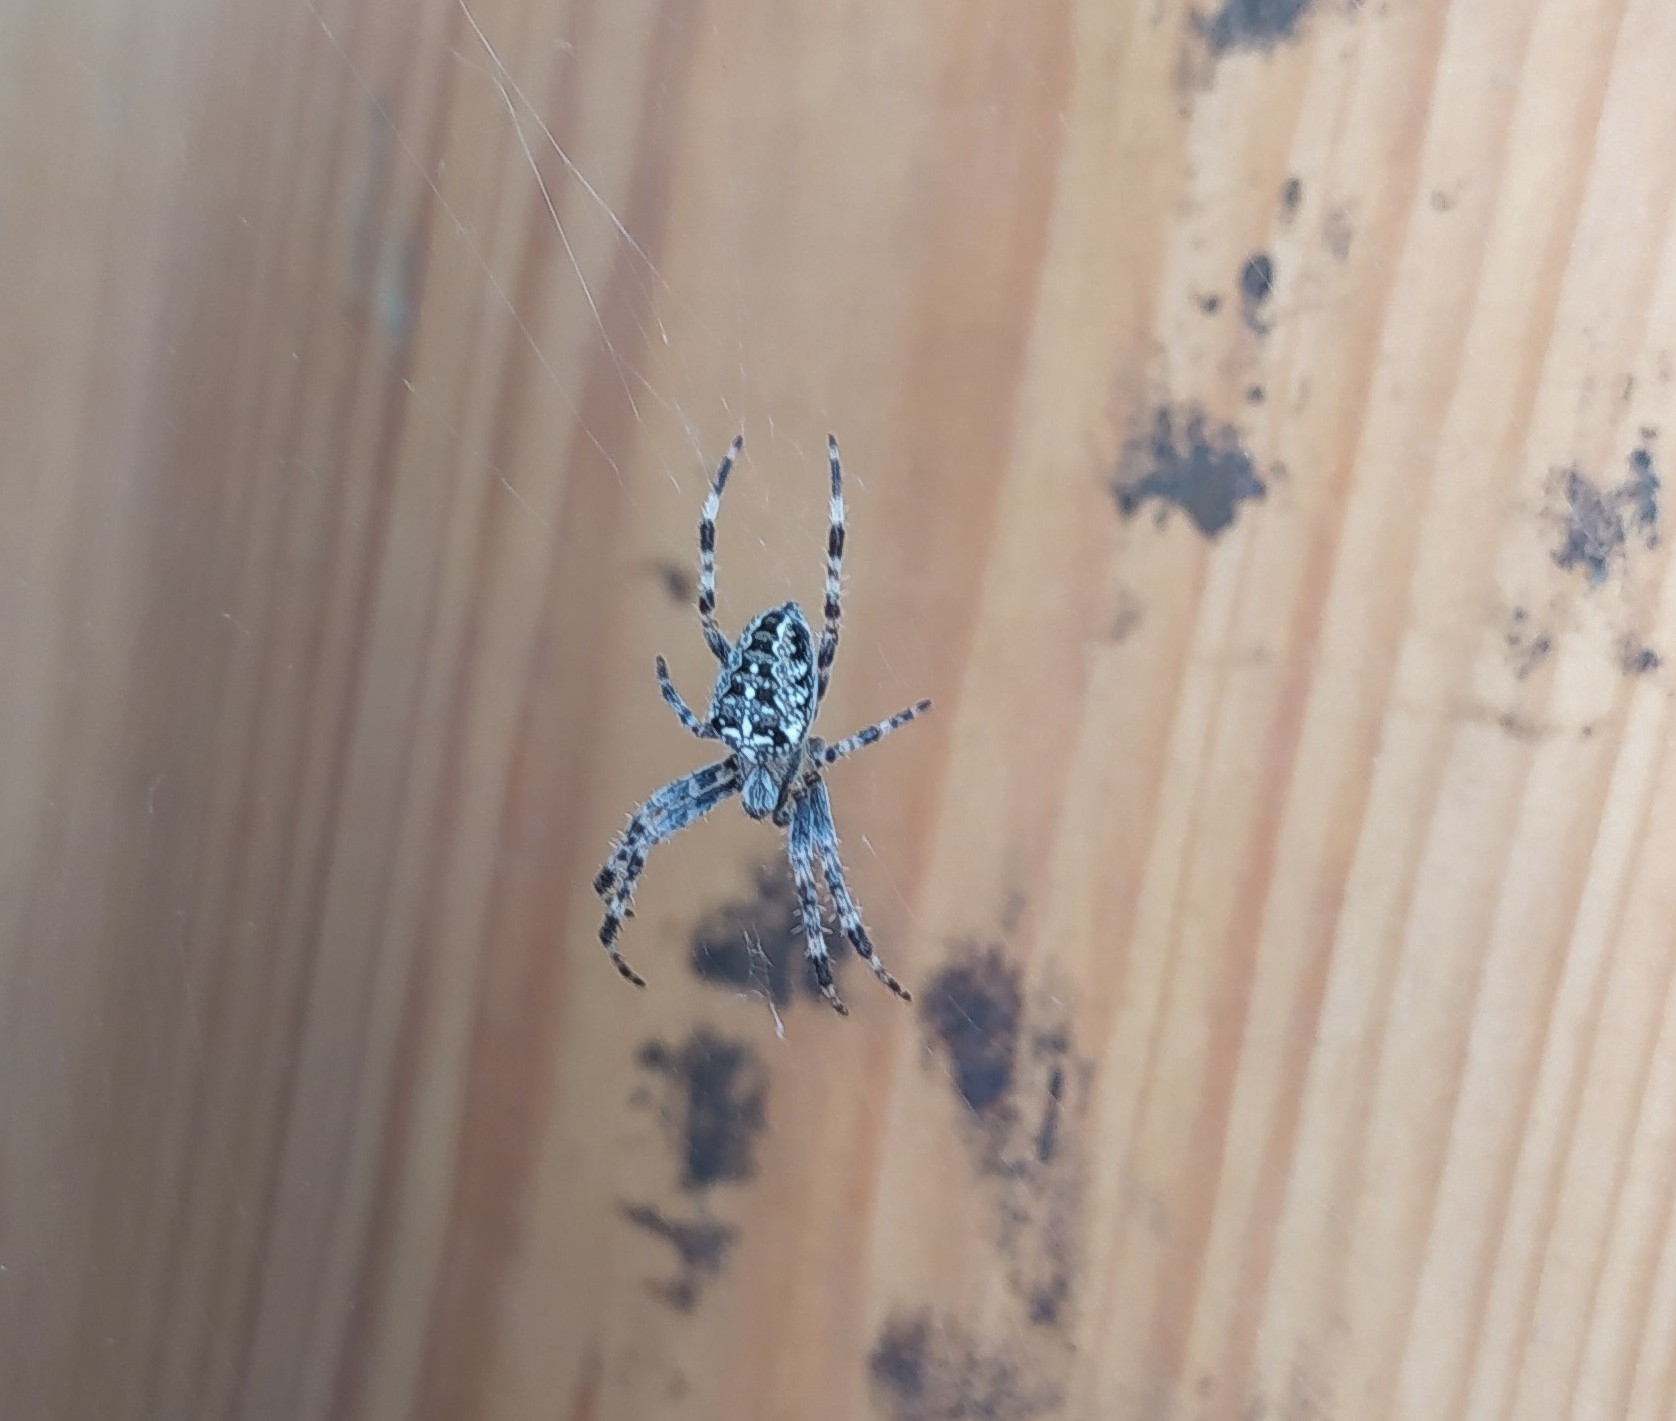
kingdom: Animalia
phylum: Arthropoda
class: Arachnida
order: Araneae
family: Araneidae
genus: Araneus
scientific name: Araneus diadematus
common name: Cross orbweaver
